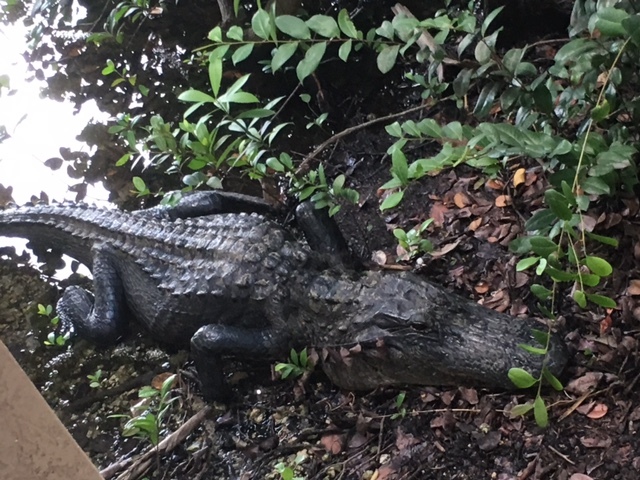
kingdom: Animalia
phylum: Chordata
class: Crocodylia
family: Alligatoridae
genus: Alligator
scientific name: Alligator mississippiensis
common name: American alligator
